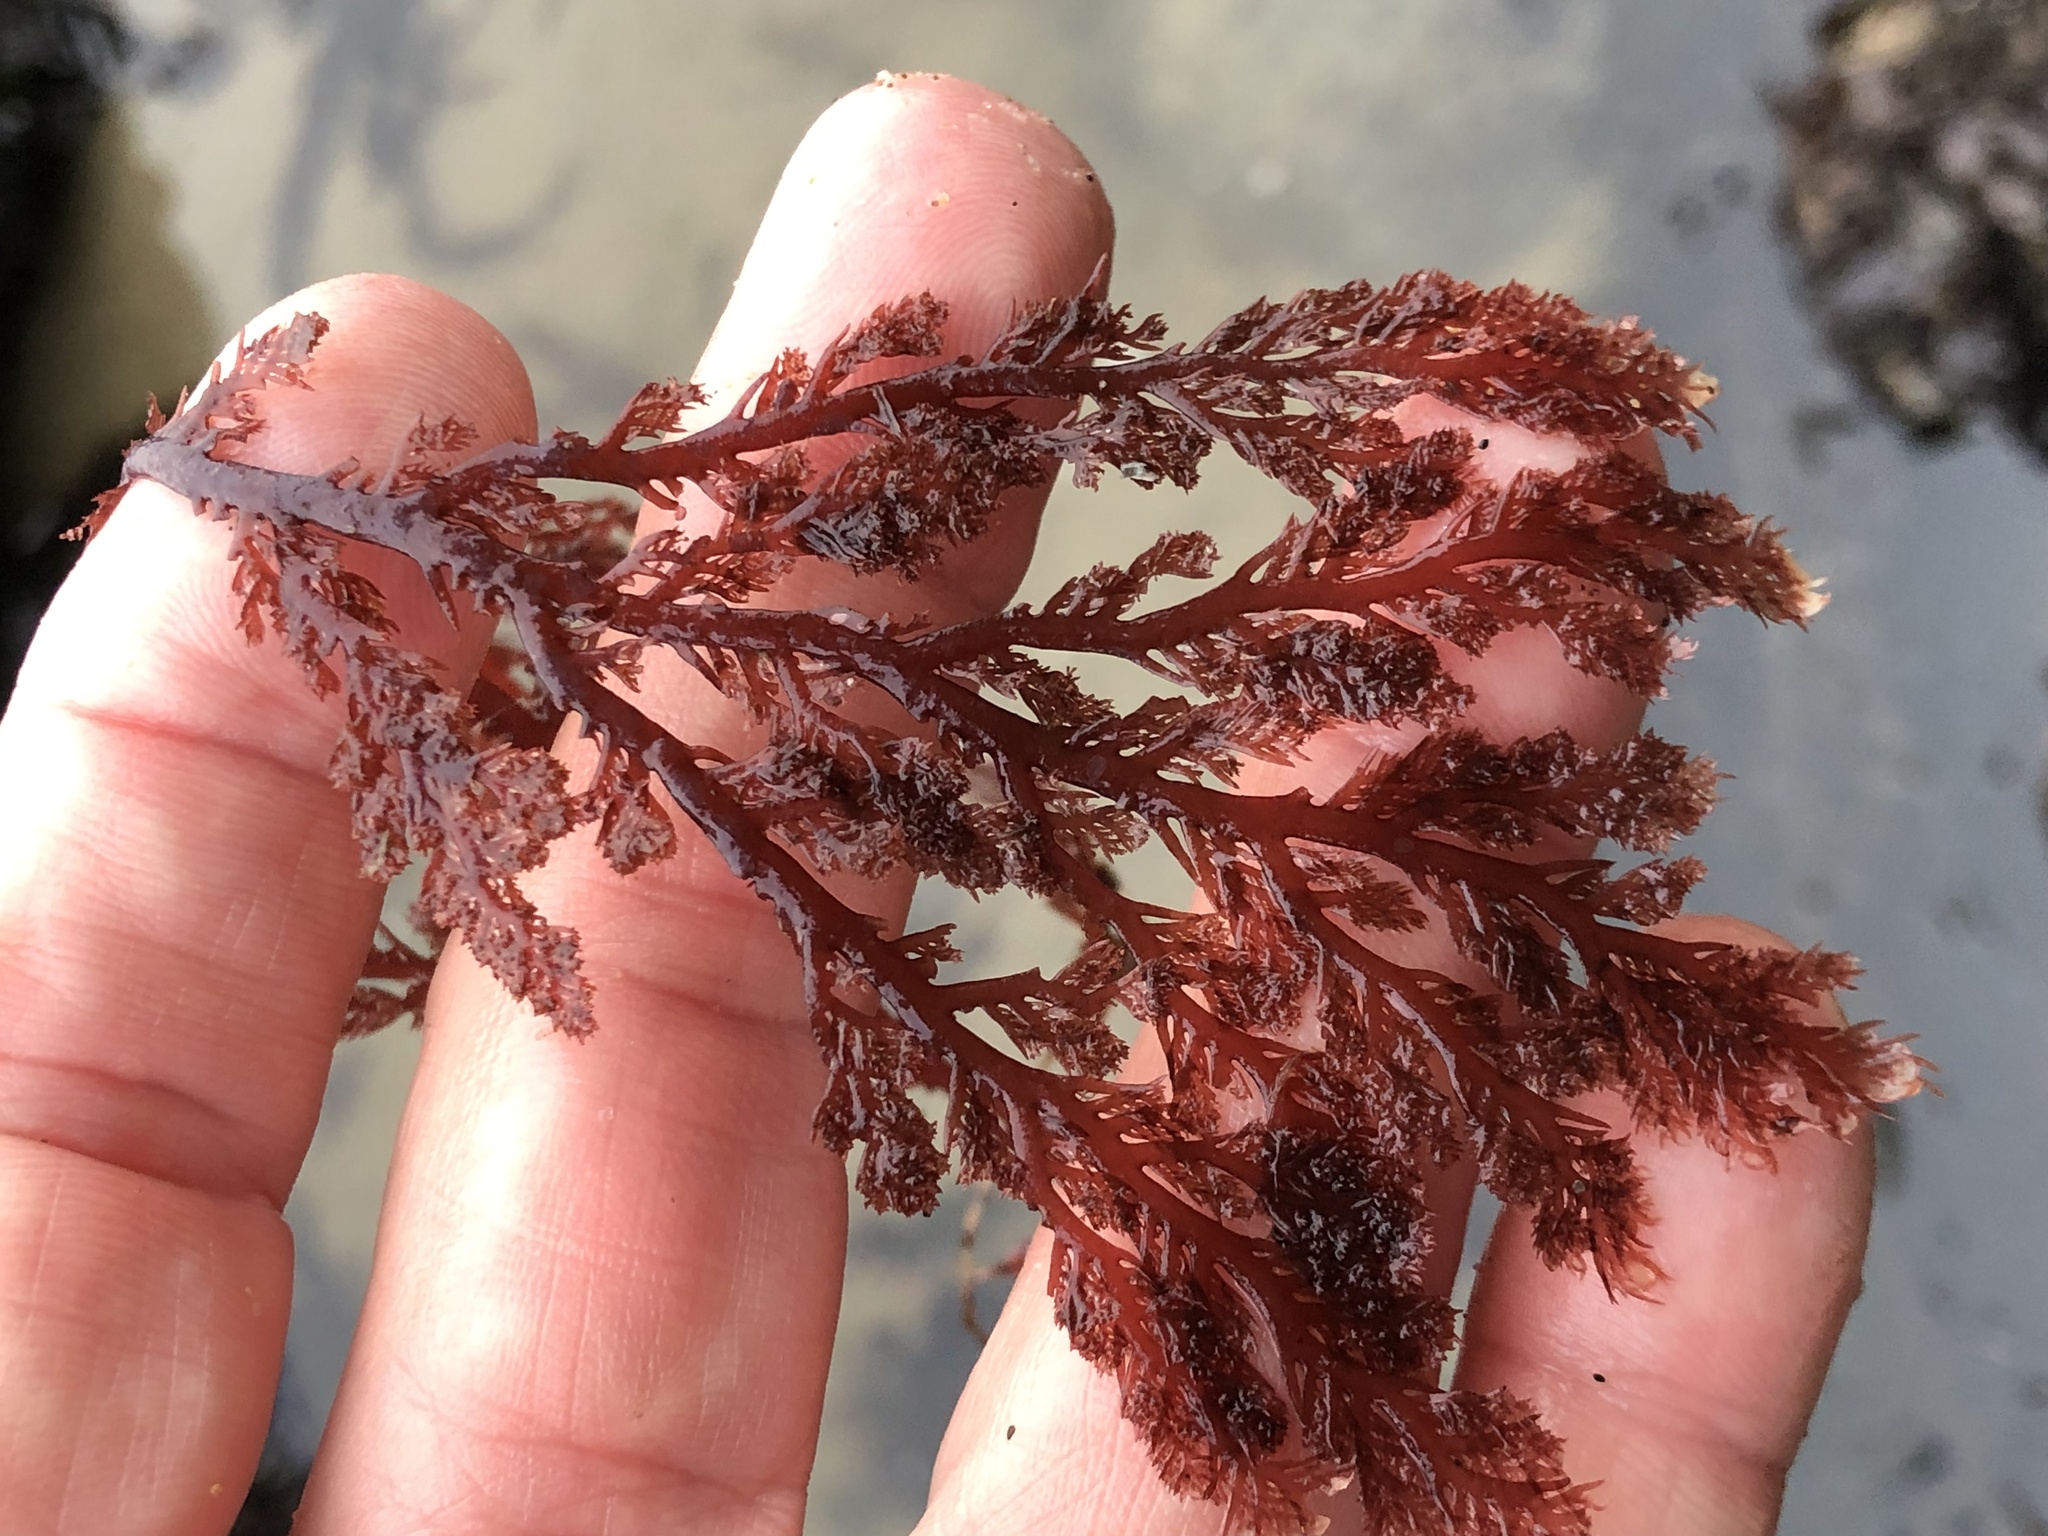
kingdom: Plantae
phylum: Rhodophyta
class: Florideophyceae
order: Plocamiales
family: Plocamiaceae
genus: Plocamium
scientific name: Plocamium cartilagineum
